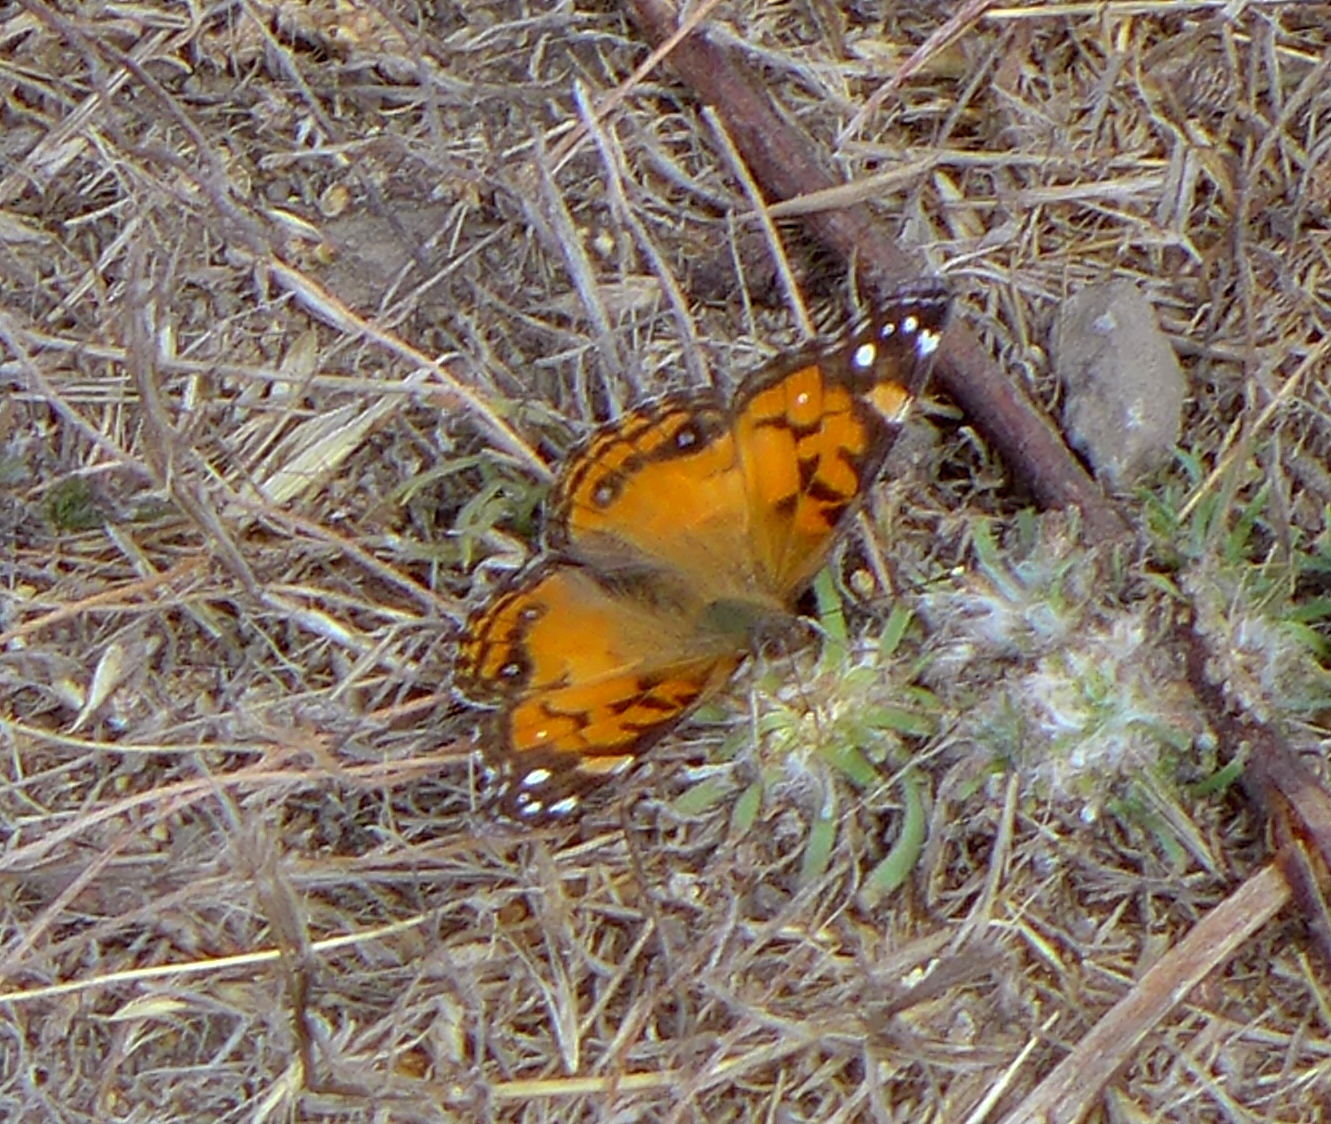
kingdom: Animalia
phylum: Arthropoda
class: Insecta
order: Lepidoptera
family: Nymphalidae
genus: Vanessa
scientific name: Vanessa virginiensis
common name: American lady
